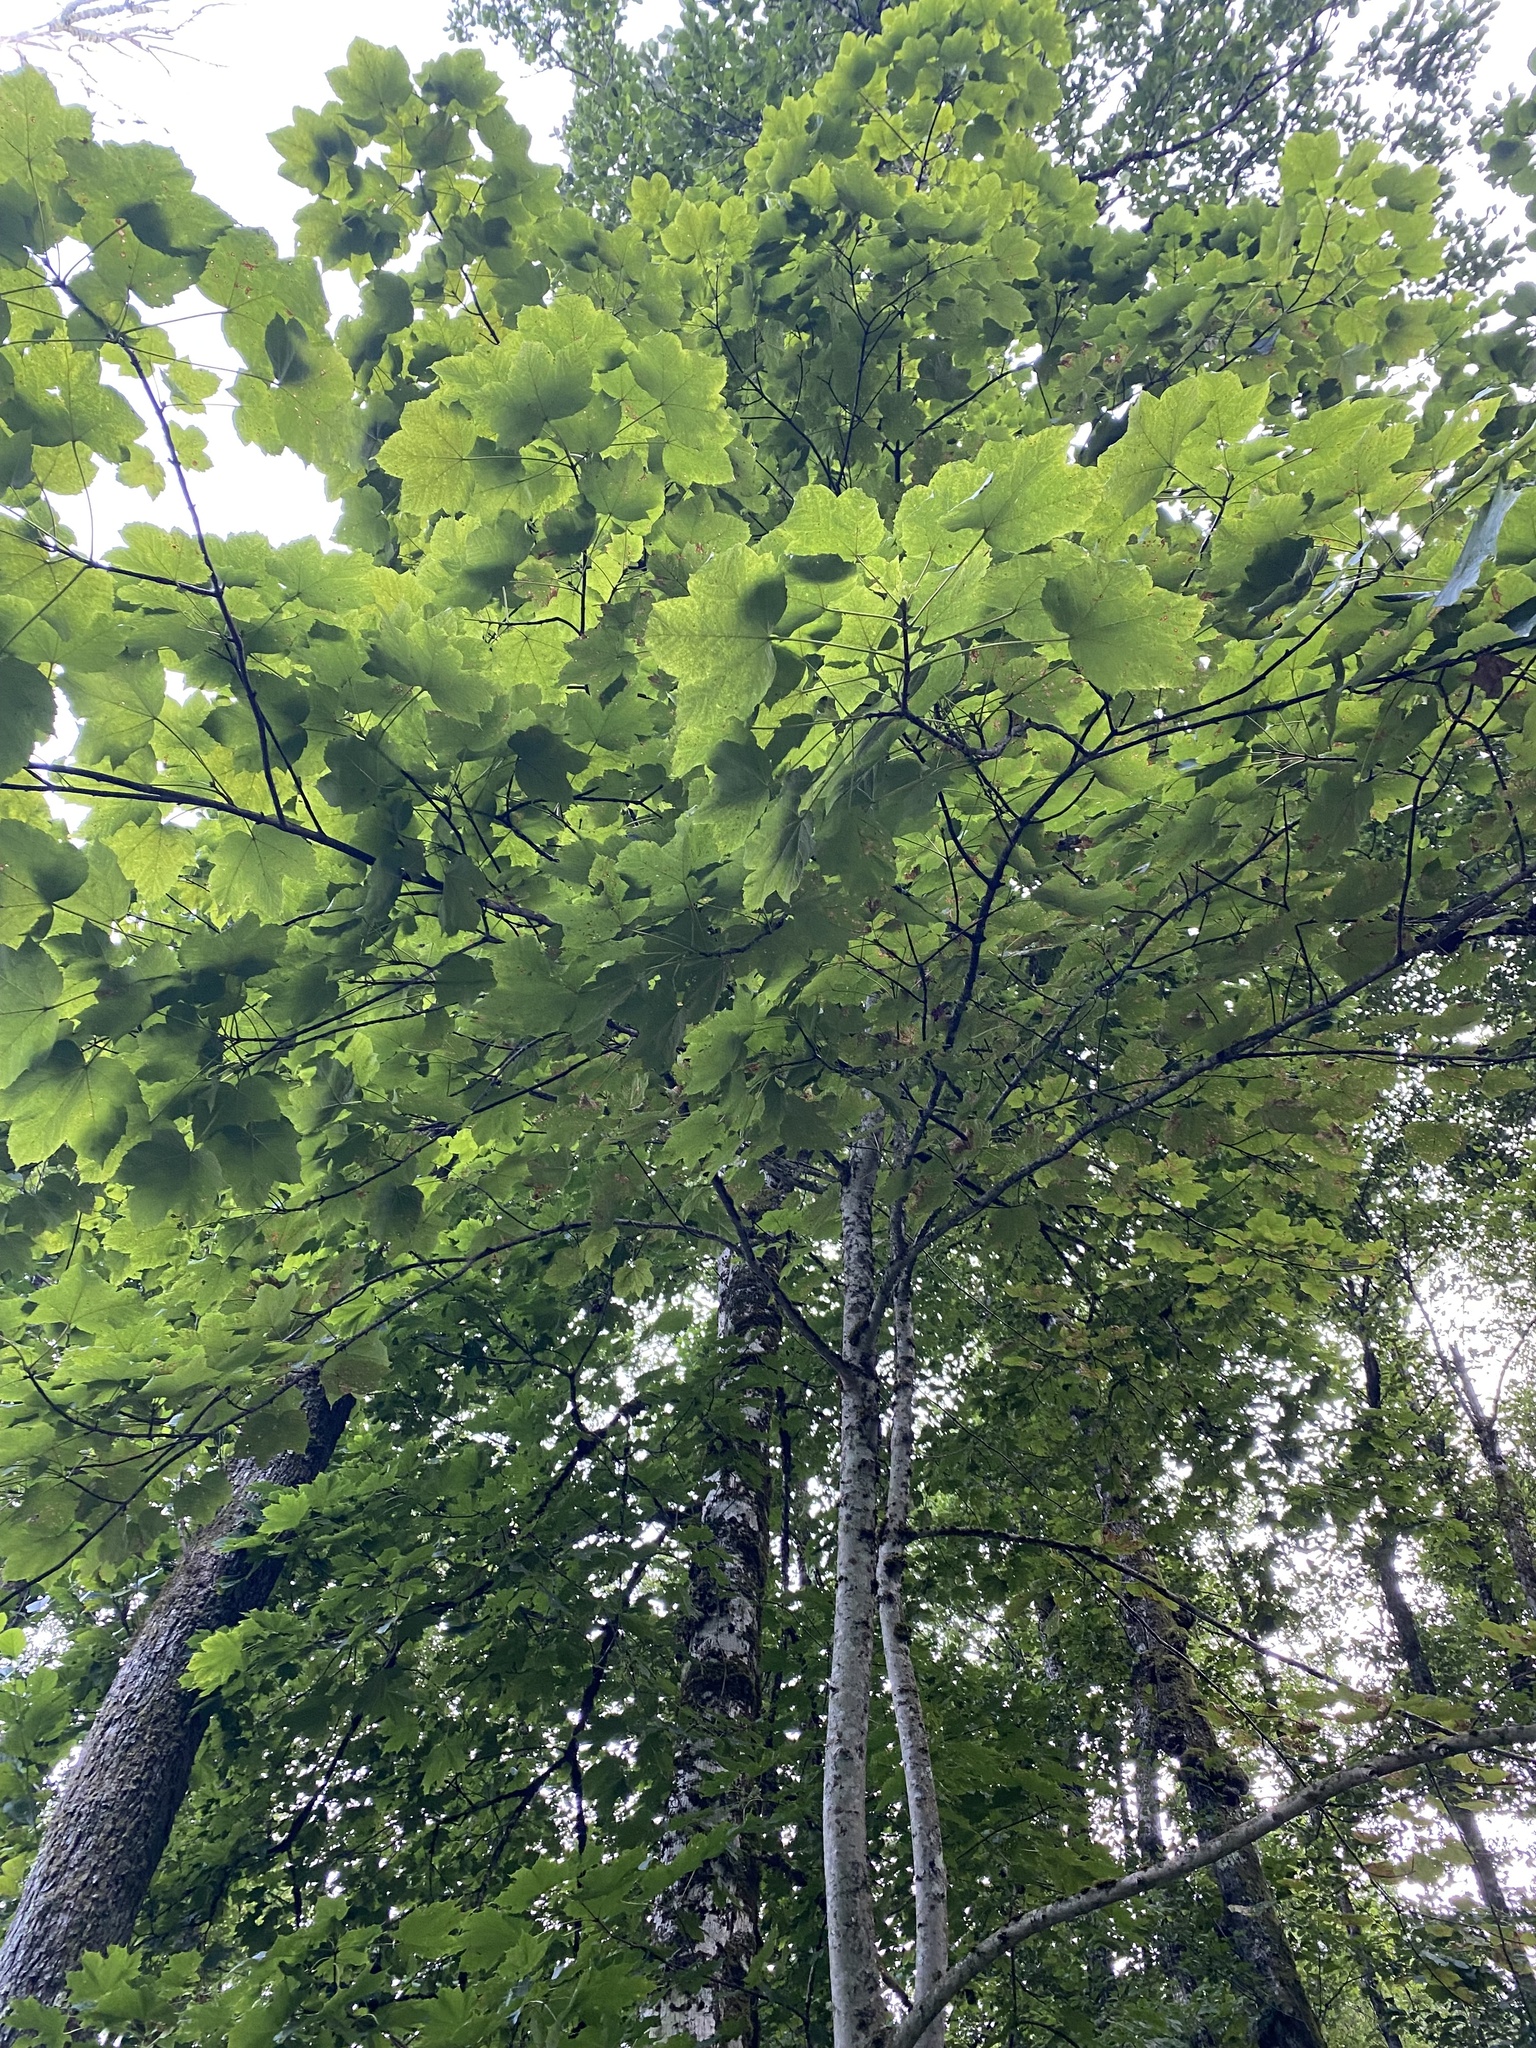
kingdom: Plantae
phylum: Tracheophyta
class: Magnoliopsida
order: Sapindales
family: Sapindaceae
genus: Acer
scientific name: Acer pseudoplatanus
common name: Sycamore
